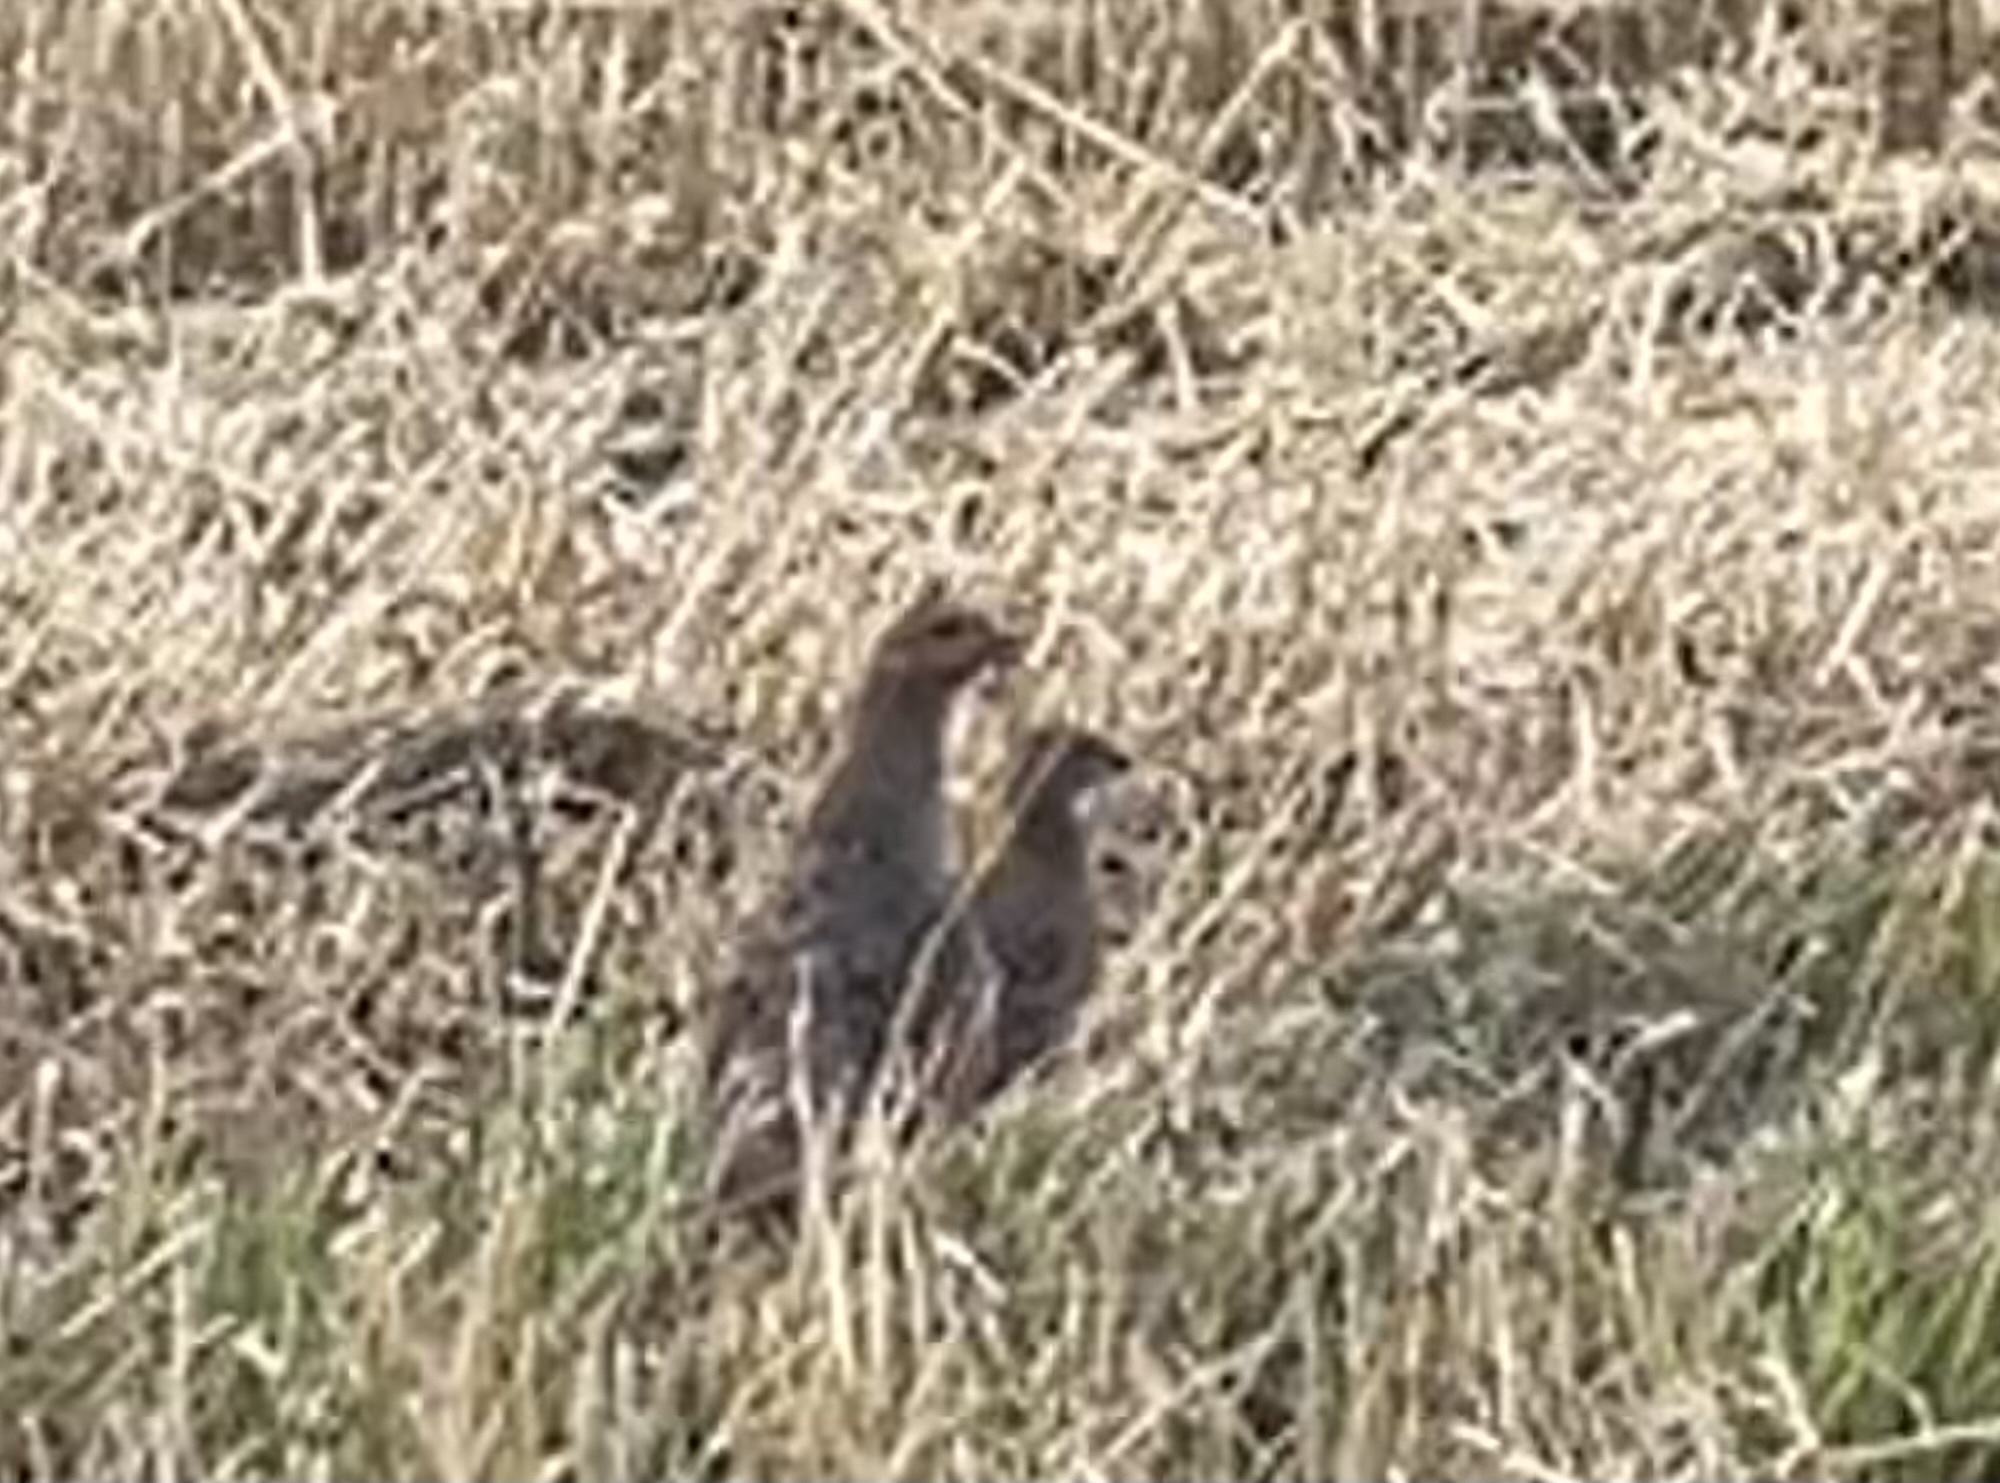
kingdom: Animalia
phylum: Chordata
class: Aves
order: Galliformes
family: Phasianidae
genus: Perdix
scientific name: Perdix perdix
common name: Grey partridge
